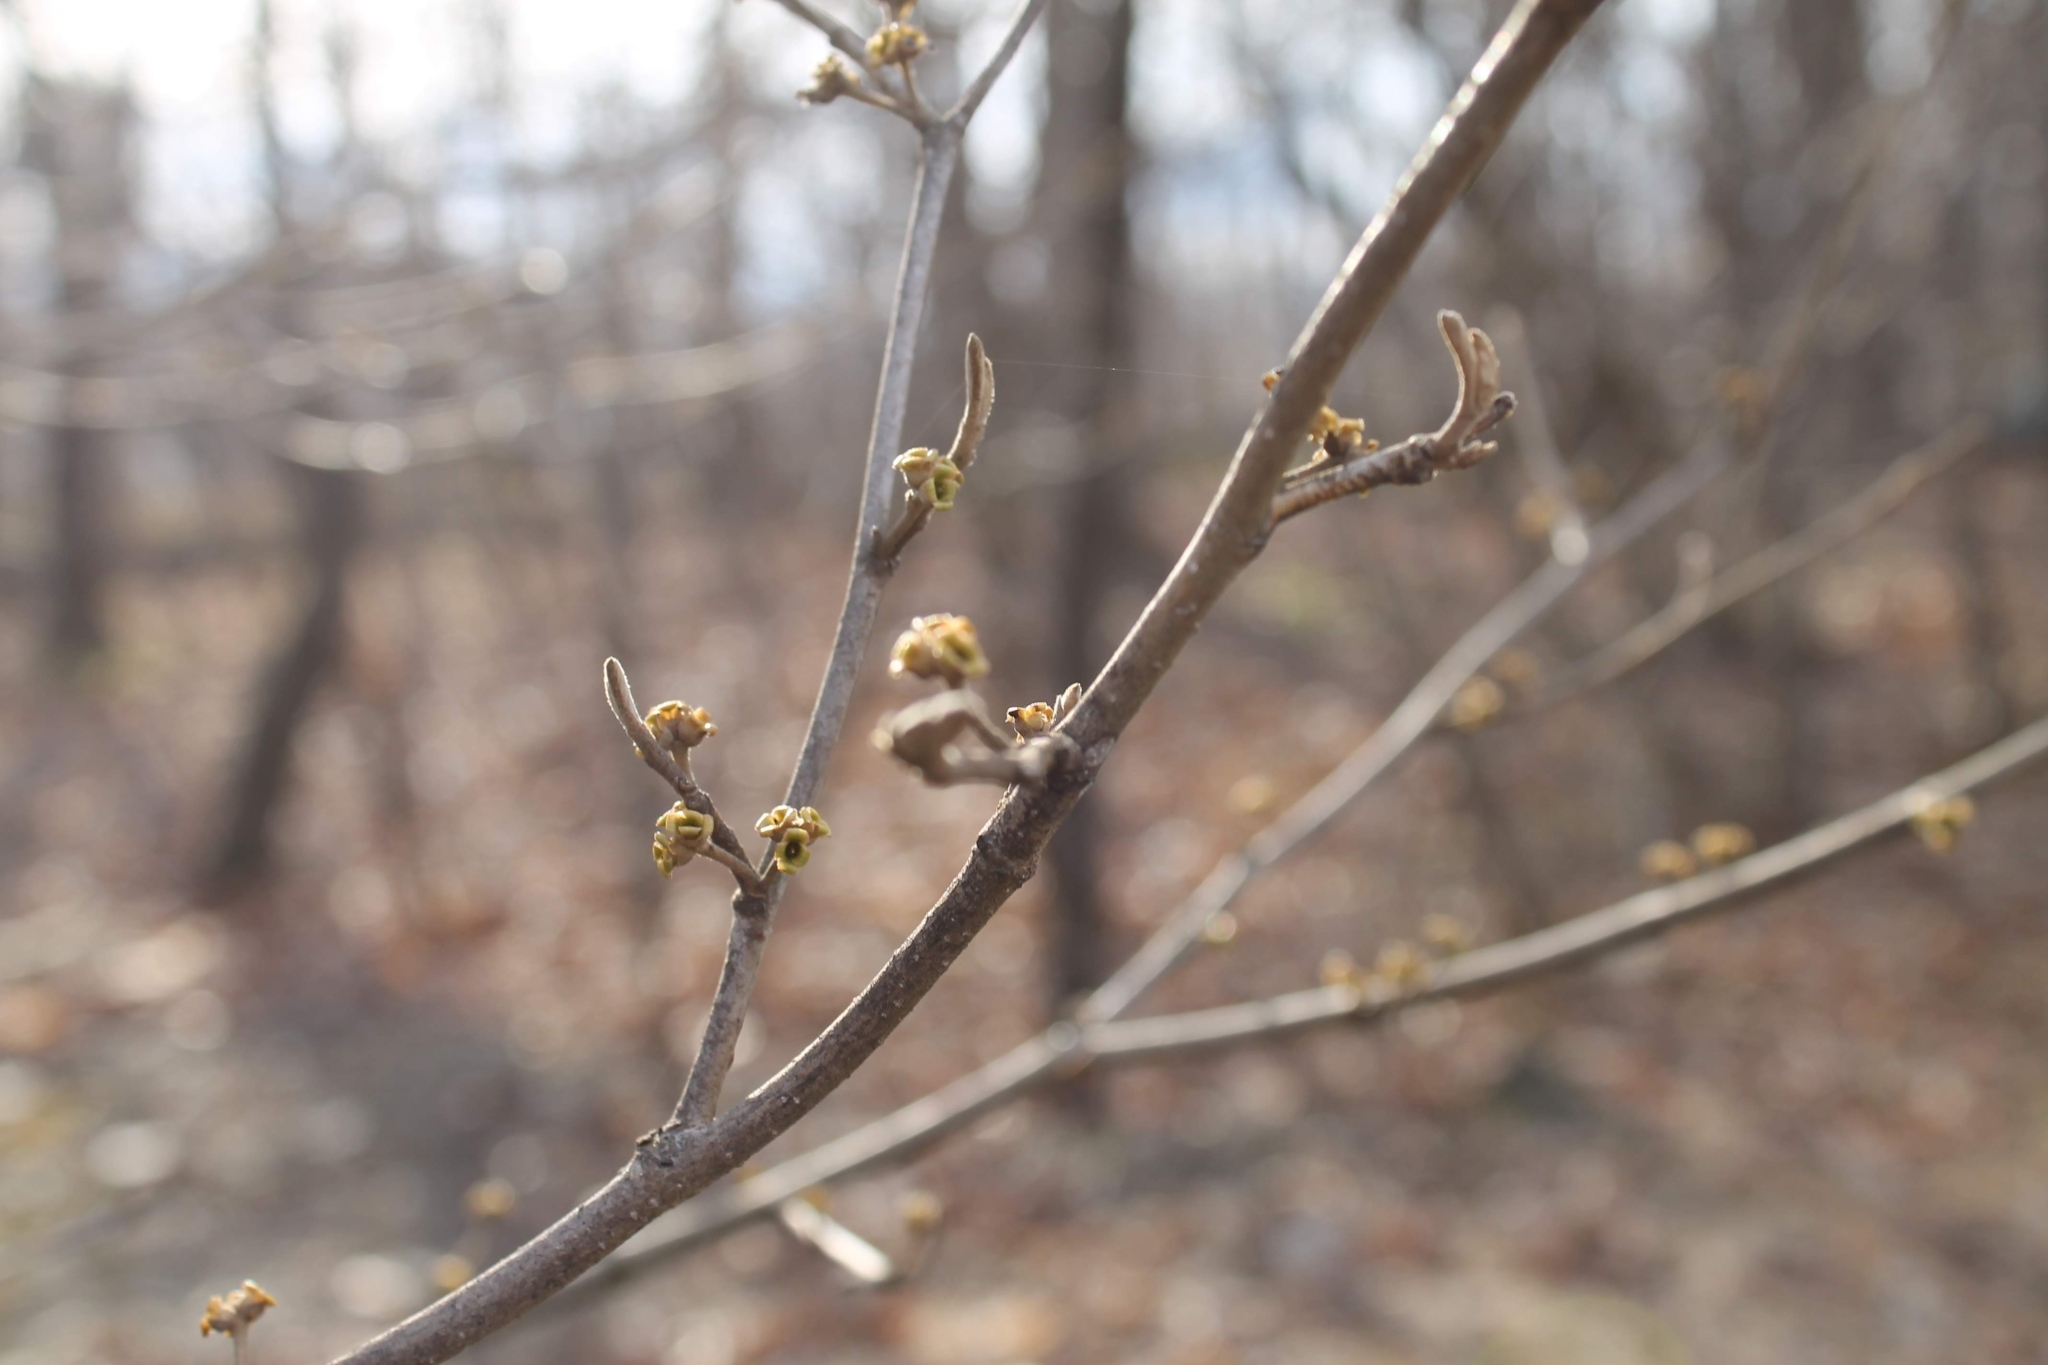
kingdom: Plantae
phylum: Tracheophyta
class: Magnoliopsida
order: Saxifragales
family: Hamamelidaceae
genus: Hamamelis
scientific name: Hamamelis virginiana
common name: Witch-hazel
